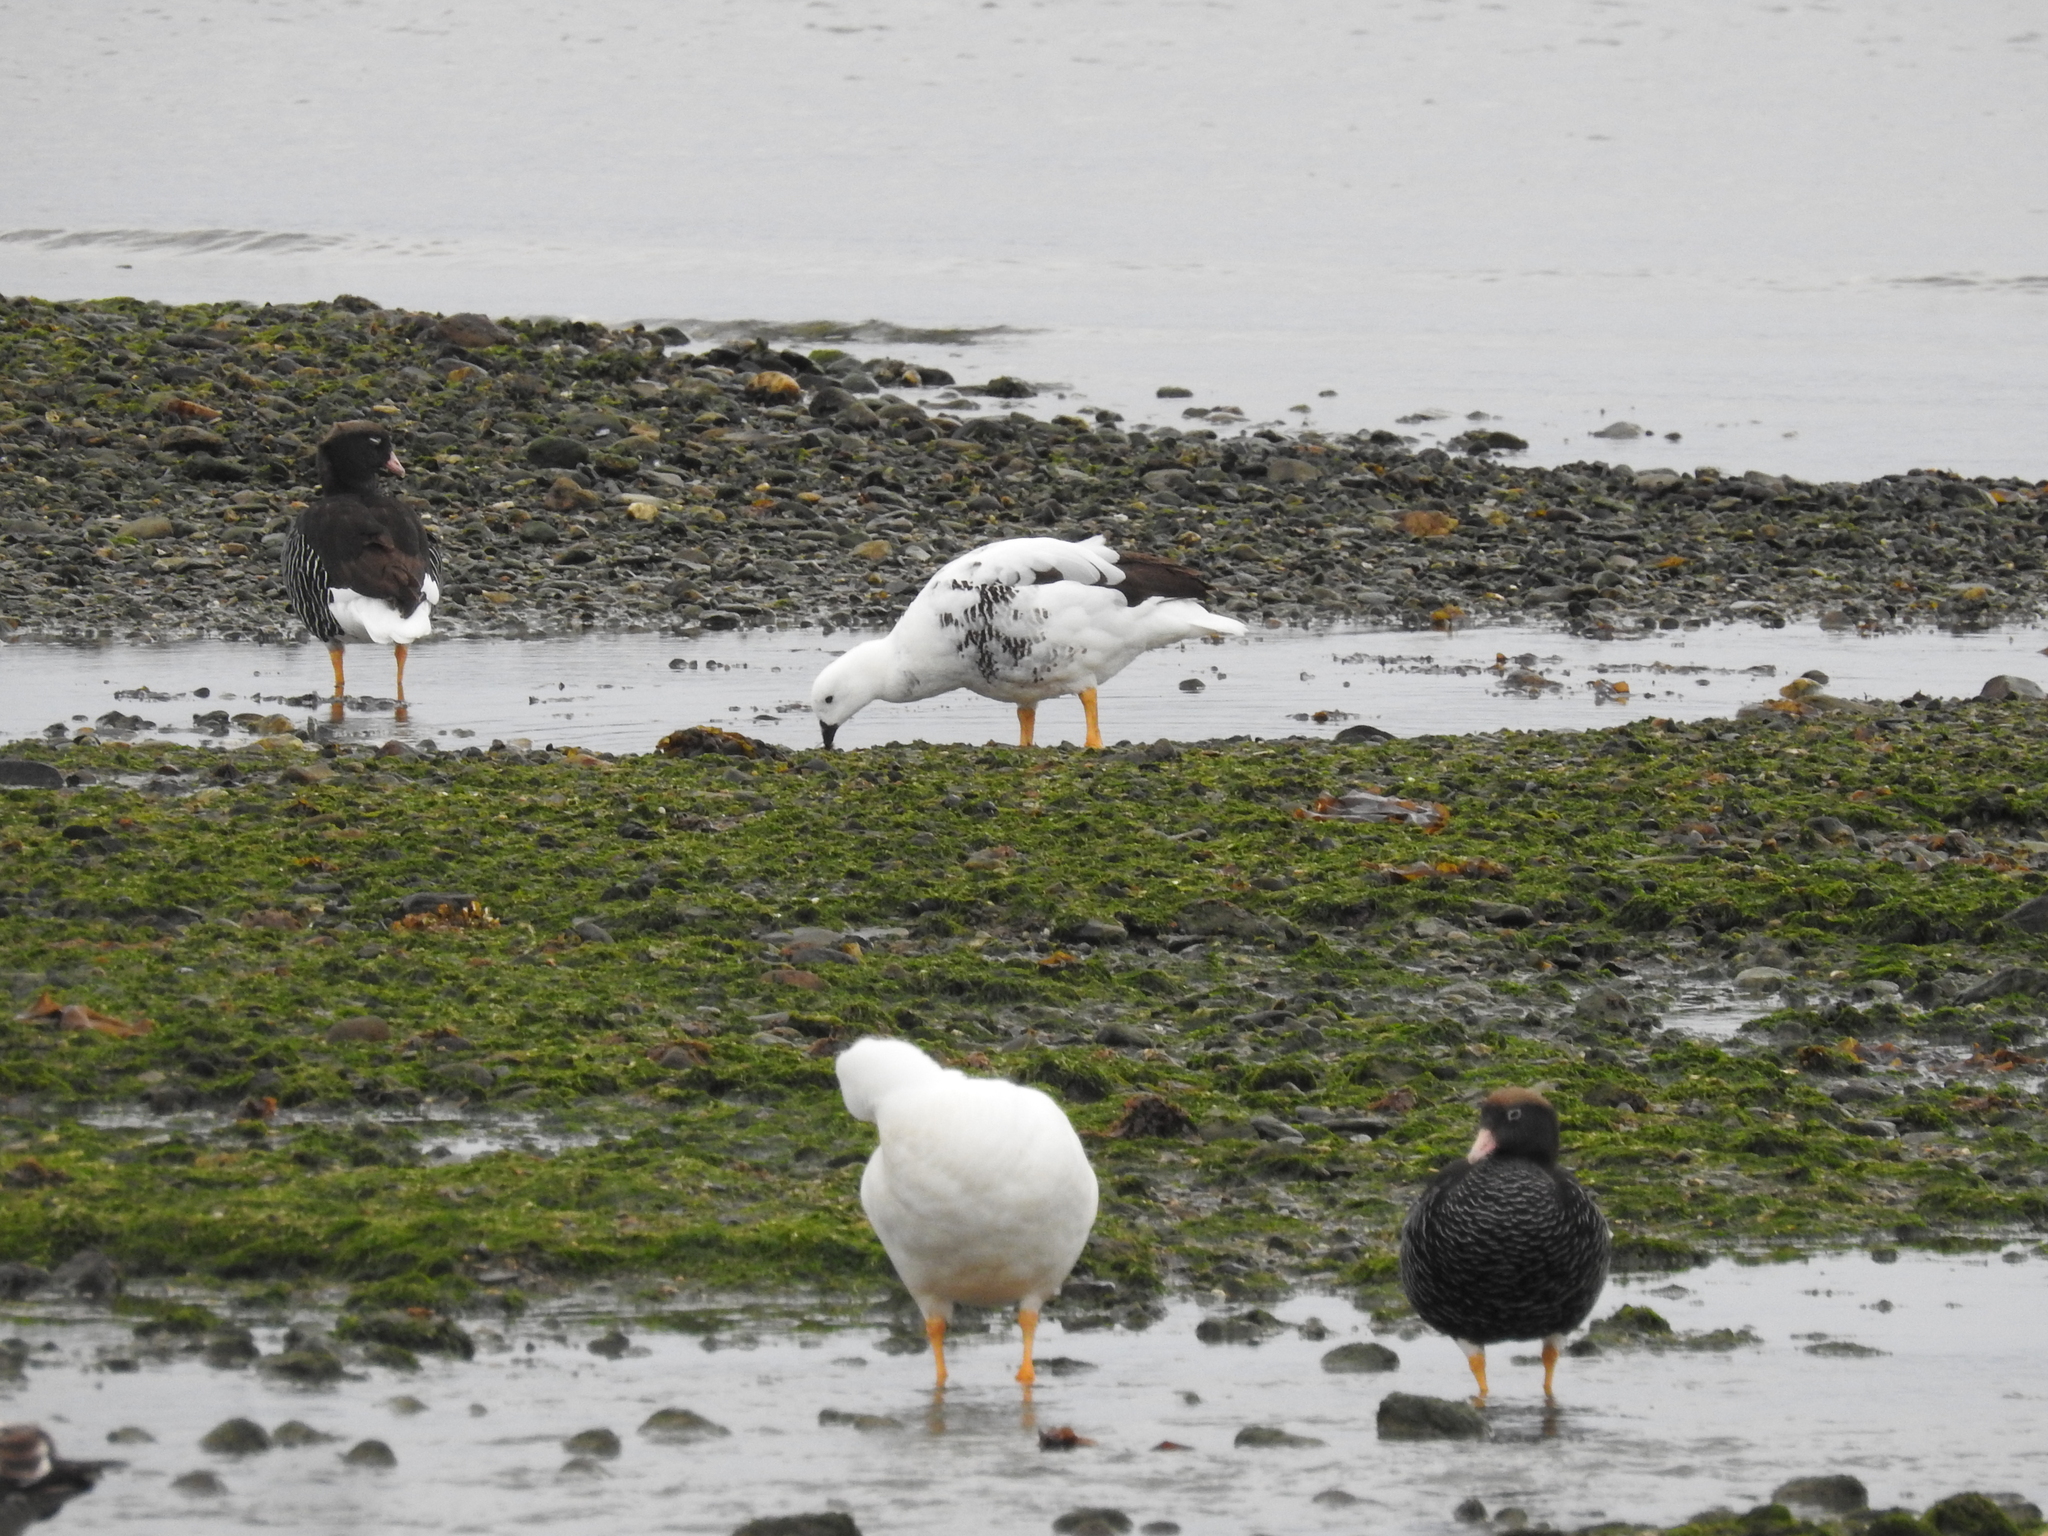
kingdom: Animalia
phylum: Chordata
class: Aves
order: Anseriformes
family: Anatidae
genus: Chloephaga
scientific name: Chloephaga hybrida
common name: Kelp goose
